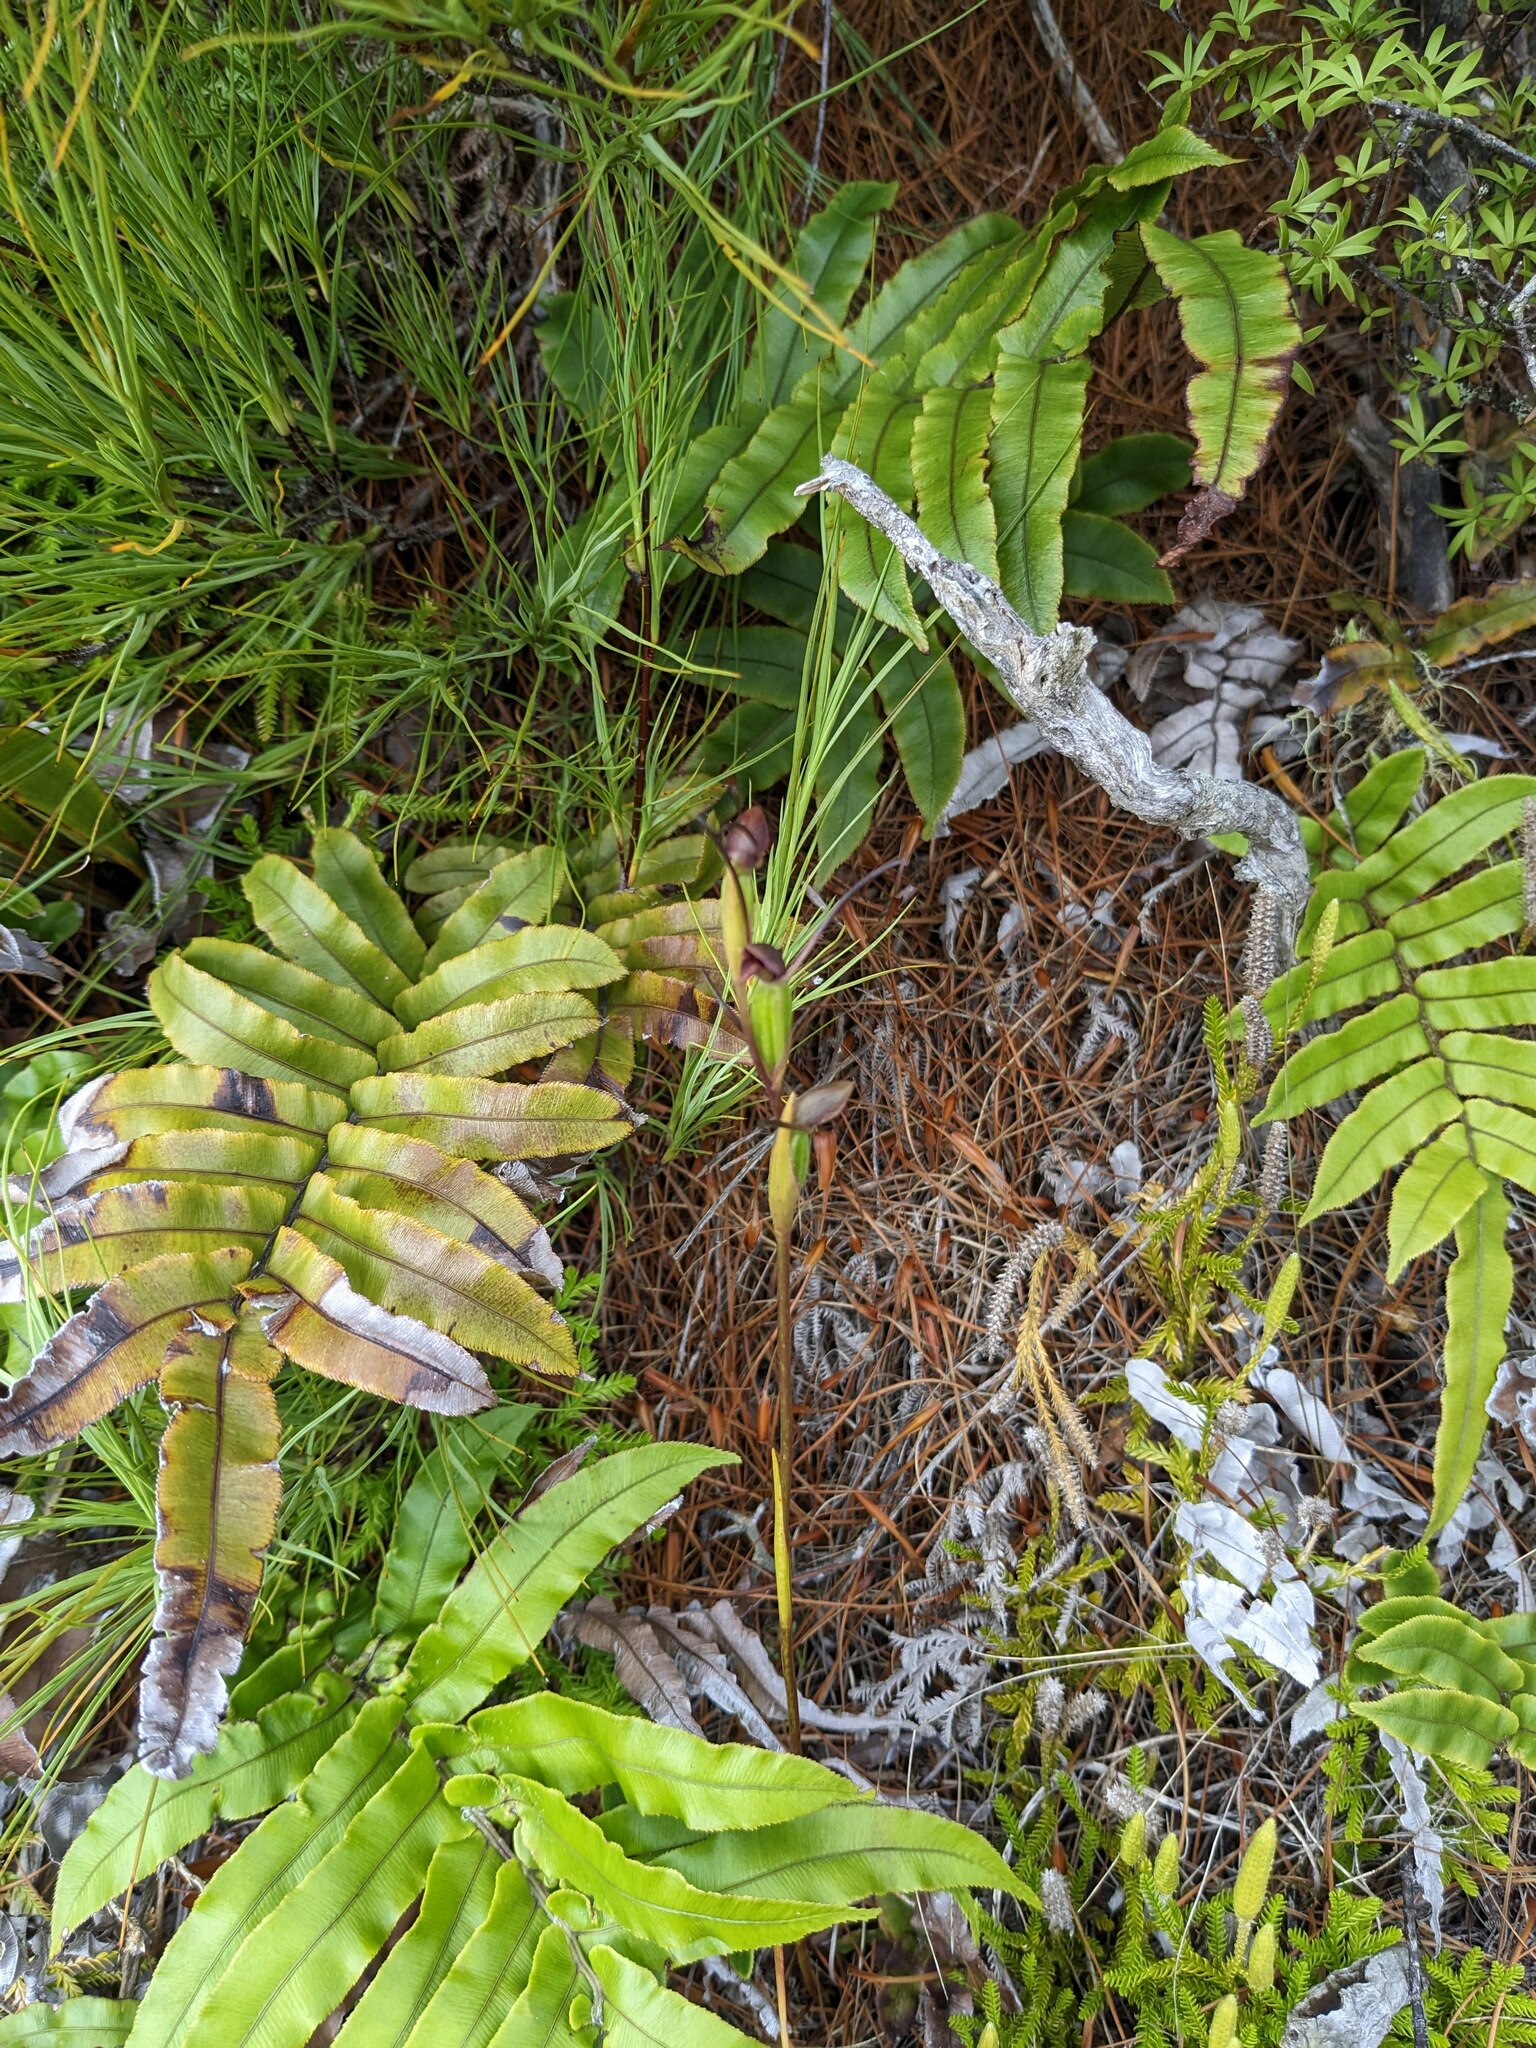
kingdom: Plantae
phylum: Tracheophyta
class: Liliopsida
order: Asparagales
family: Orchidaceae
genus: Orthoceras
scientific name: Orthoceras novae-zeelandiae
